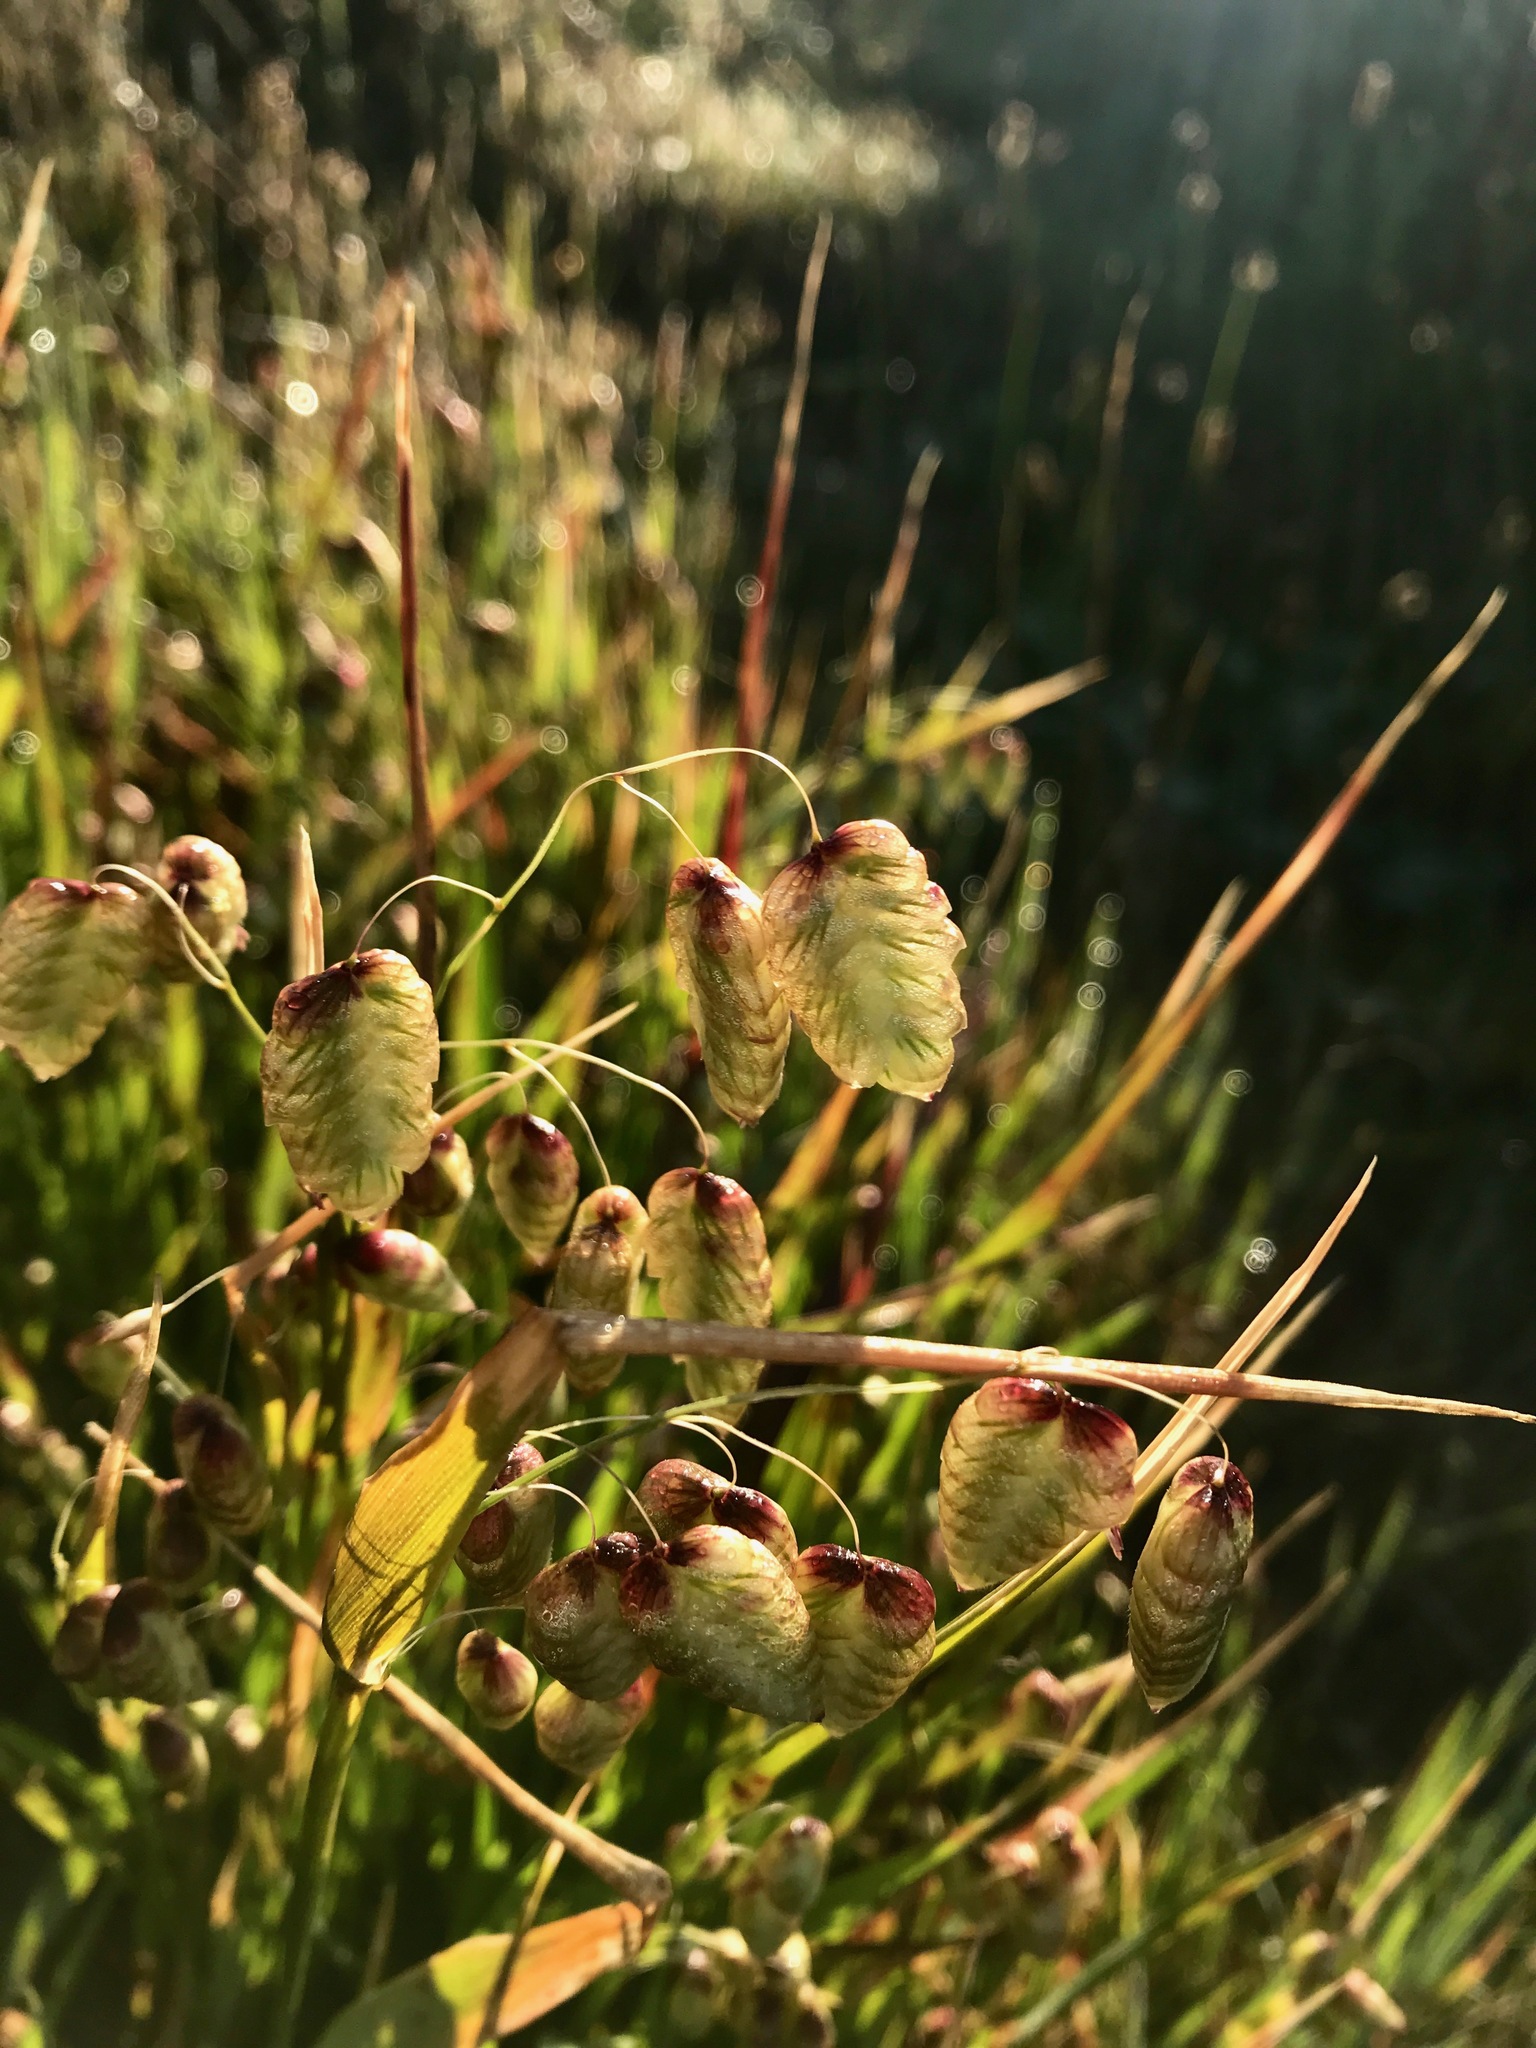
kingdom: Plantae
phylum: Tracheophyta
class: Liliopsida
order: Poales
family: Poaceae
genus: Briza
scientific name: Briza maxima
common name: Big quakinggrass
